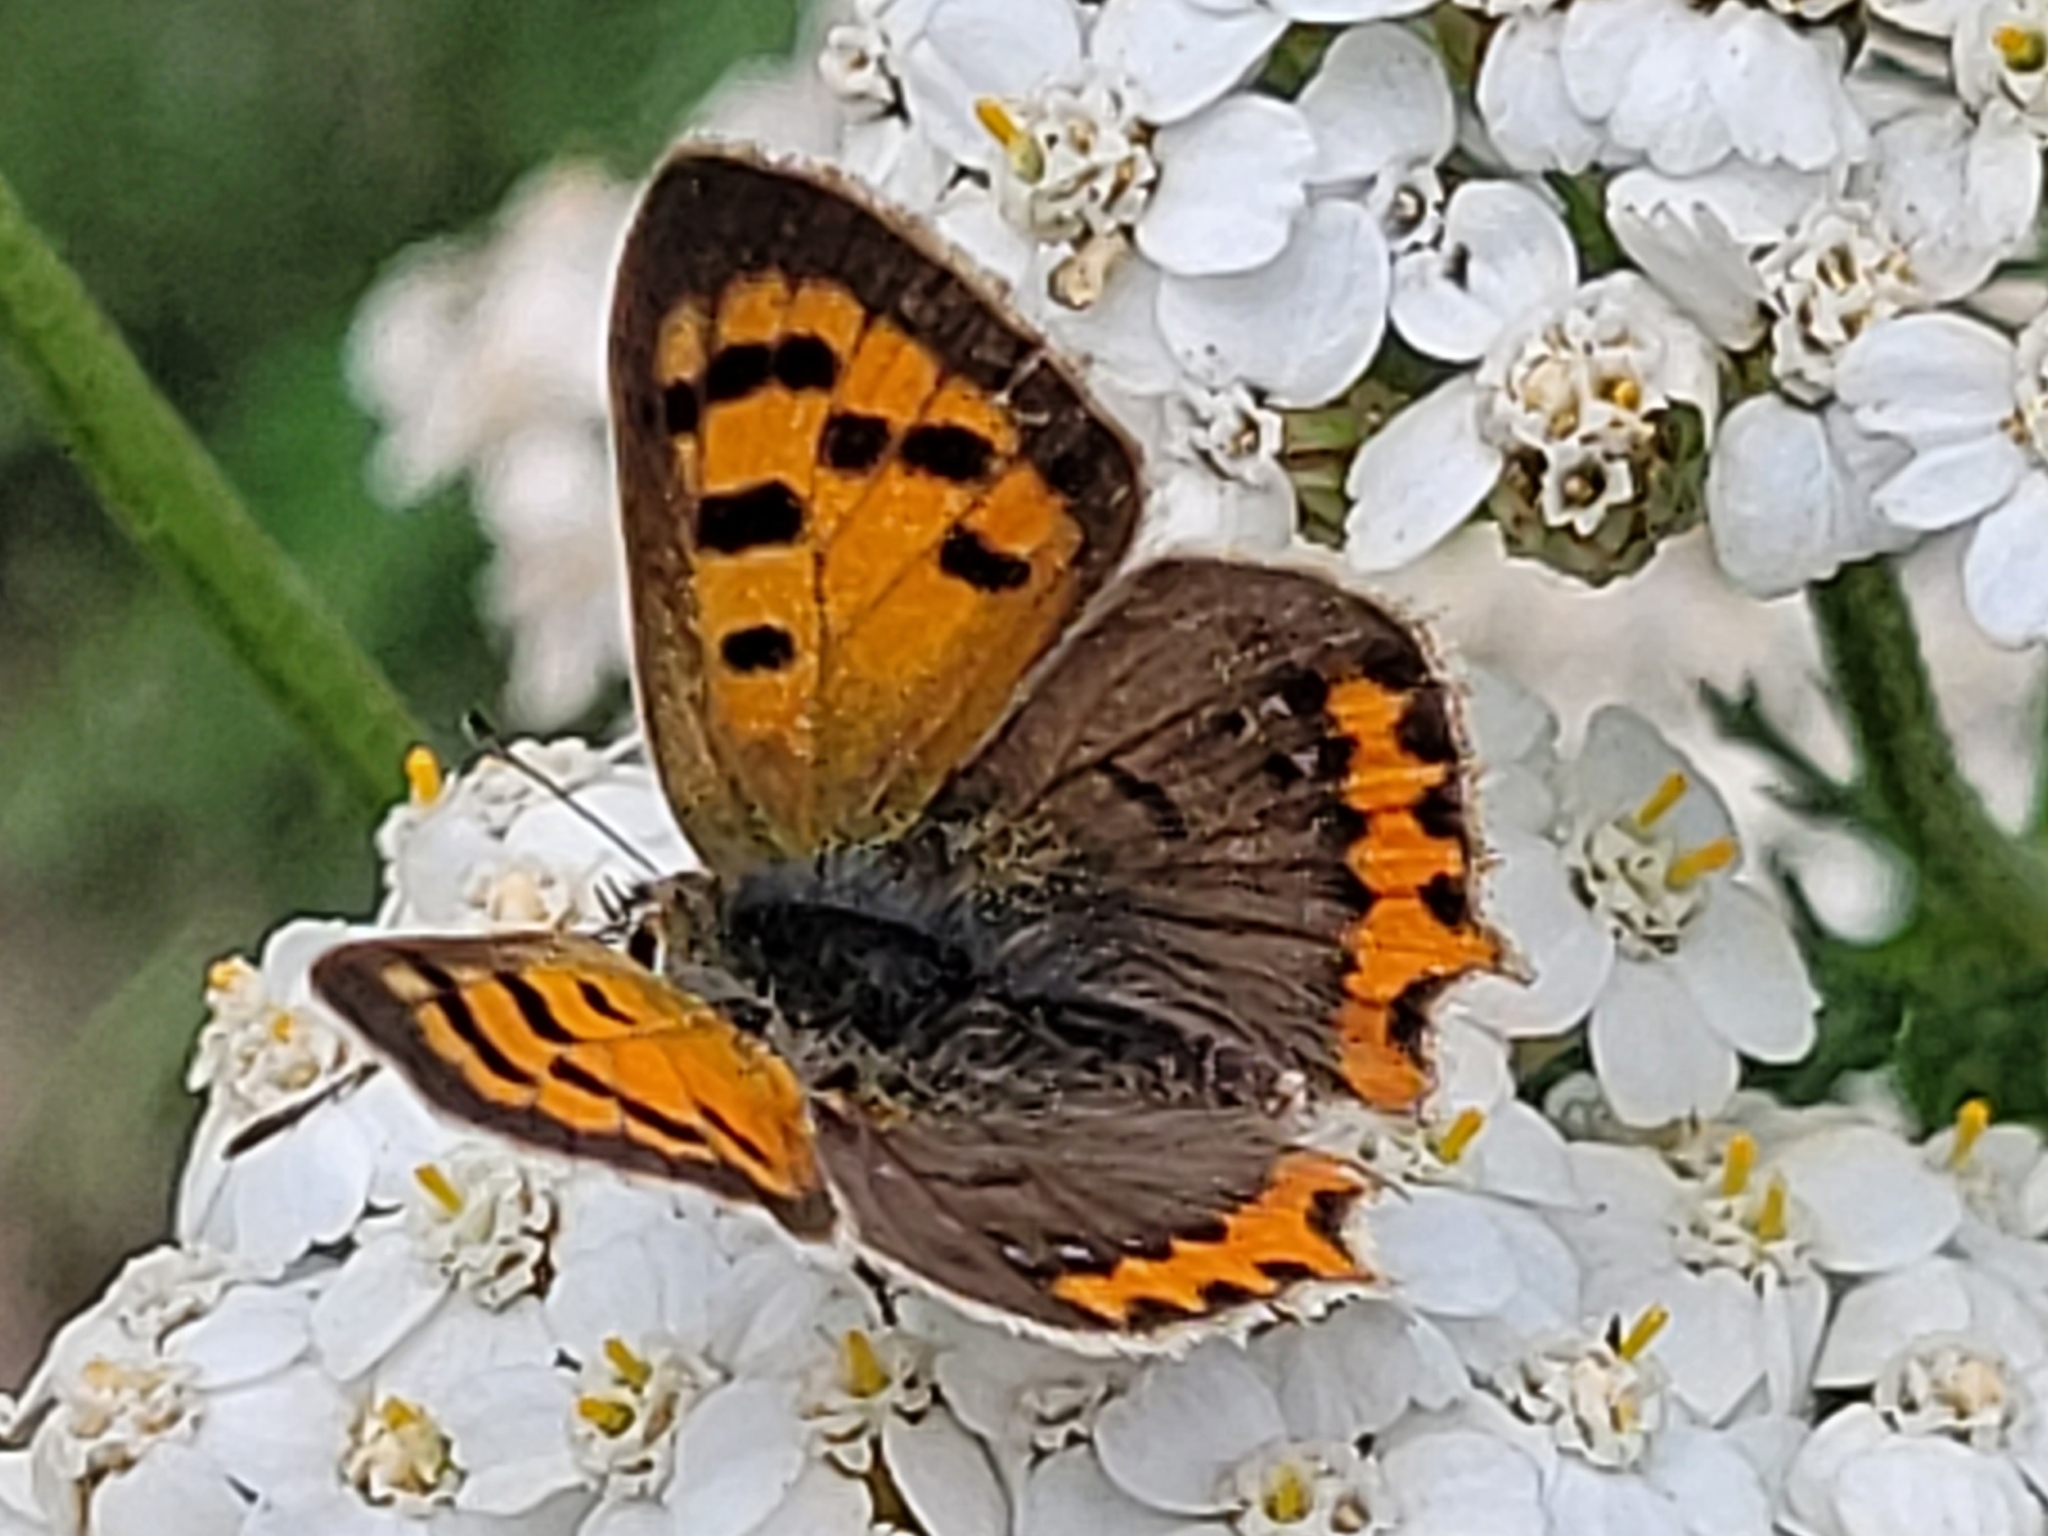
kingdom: Animalia
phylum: Arthropoda
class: Insecta
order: Lepidoptera
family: Lycaenidae
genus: Lycaena
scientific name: Lycaena phlaeas
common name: Small copper
